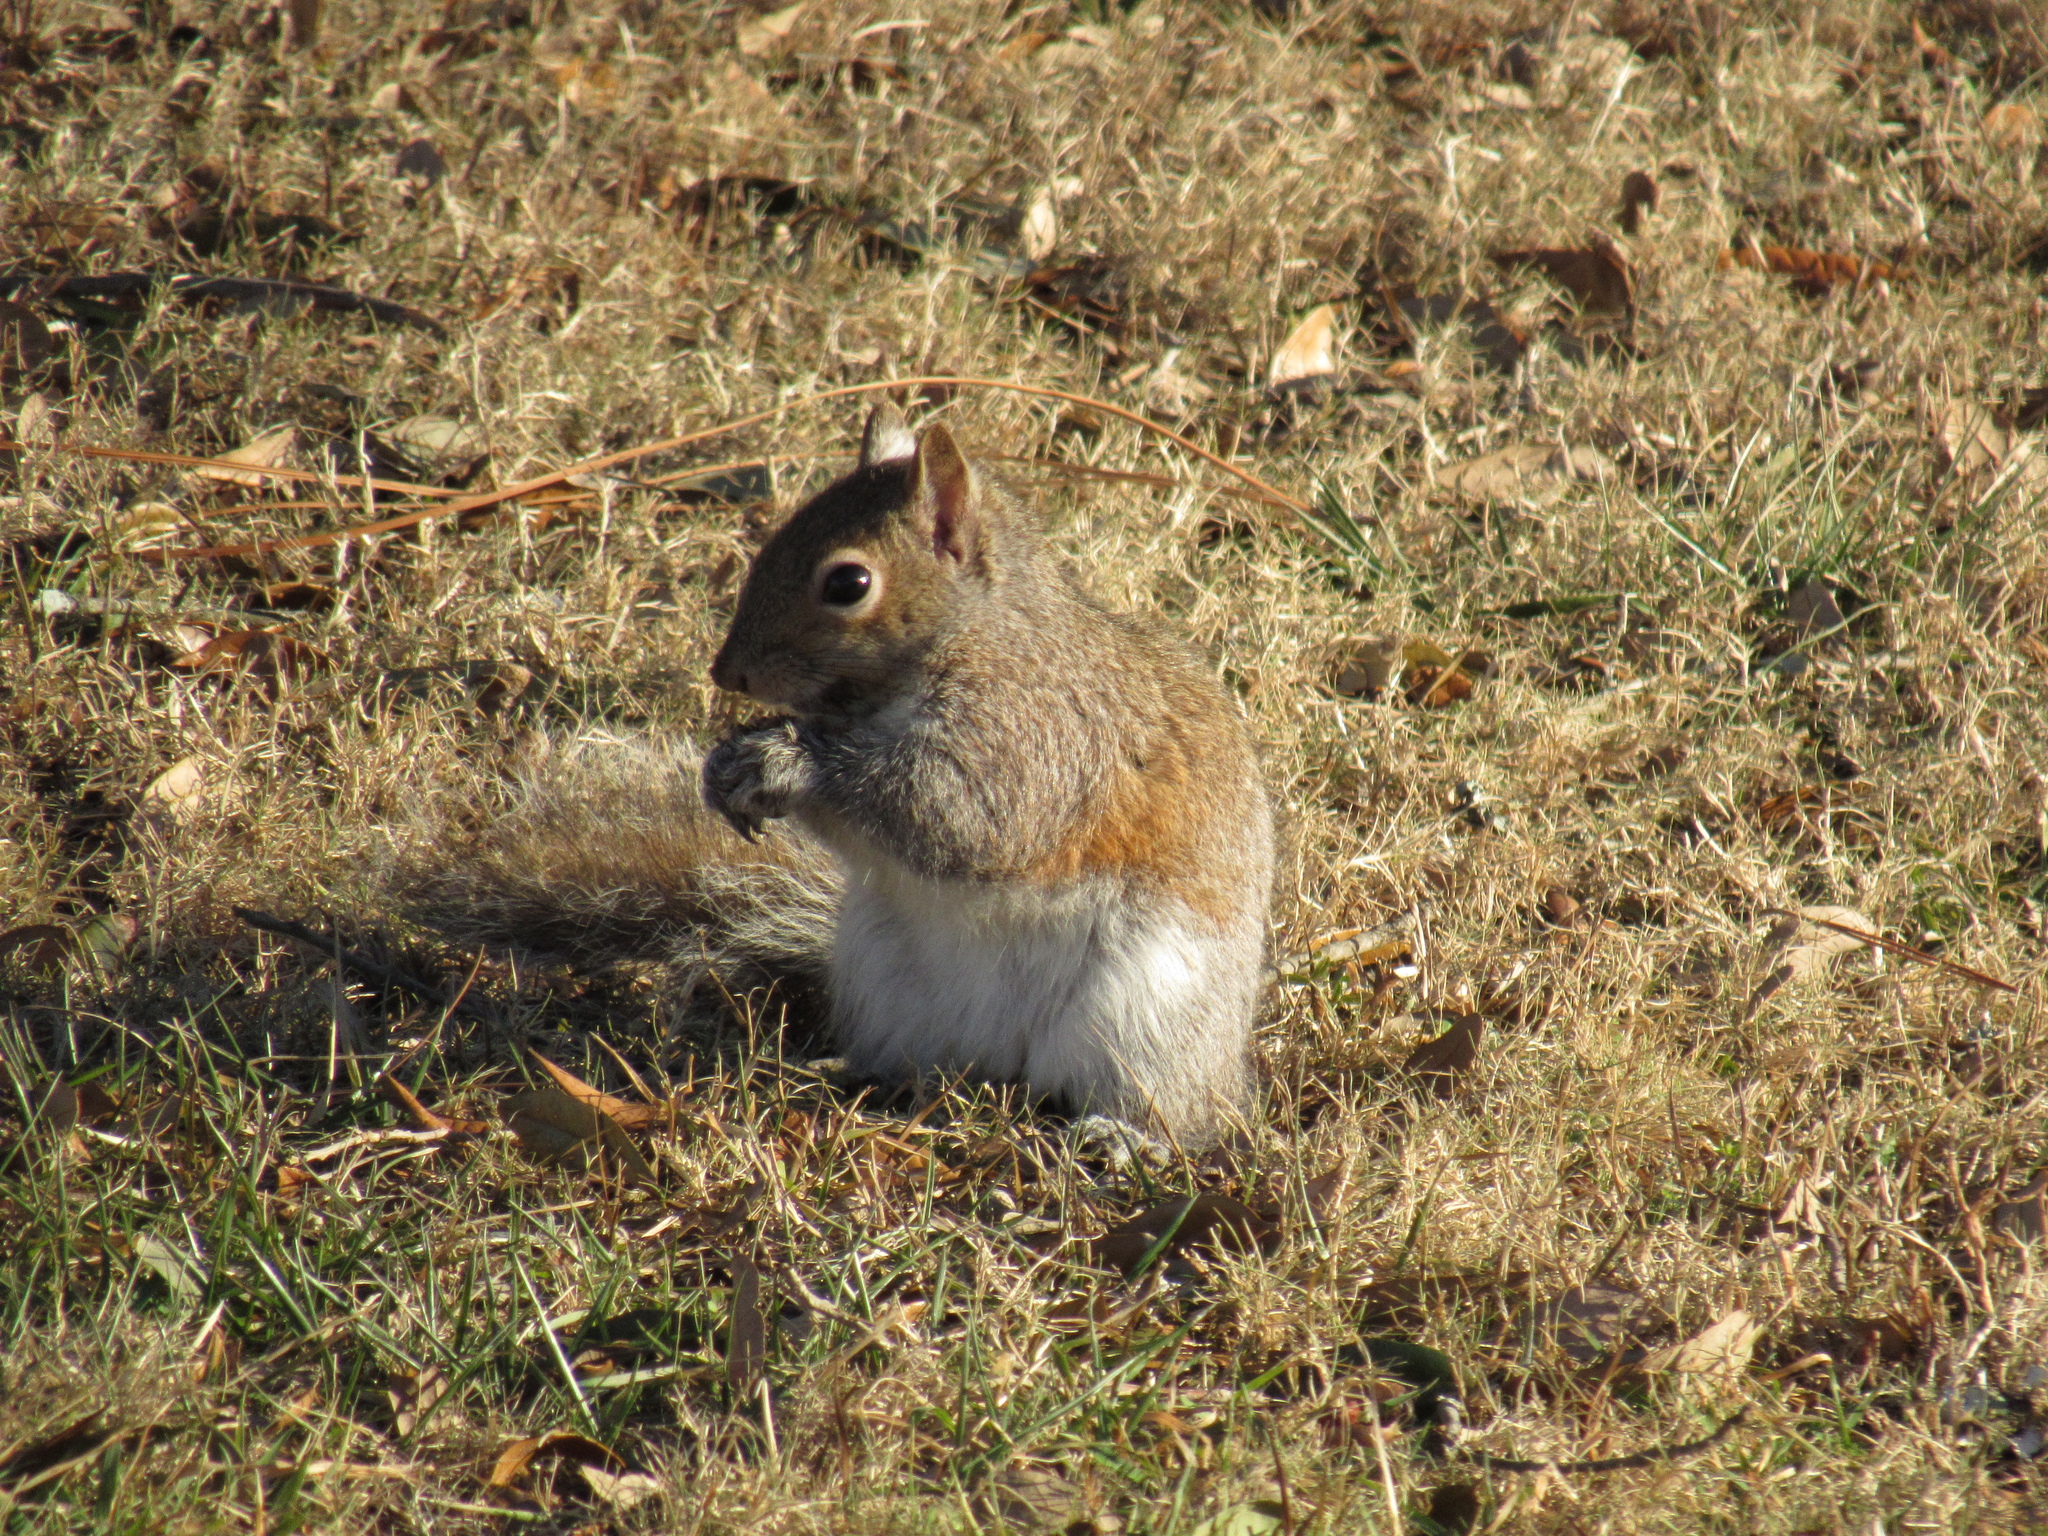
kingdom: Animalia
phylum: Chordata
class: Mammalia
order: Rodentia
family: Sciuridae
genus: Sciurus
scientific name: Sciurus carolinensis
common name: Eastern gray squirrel
